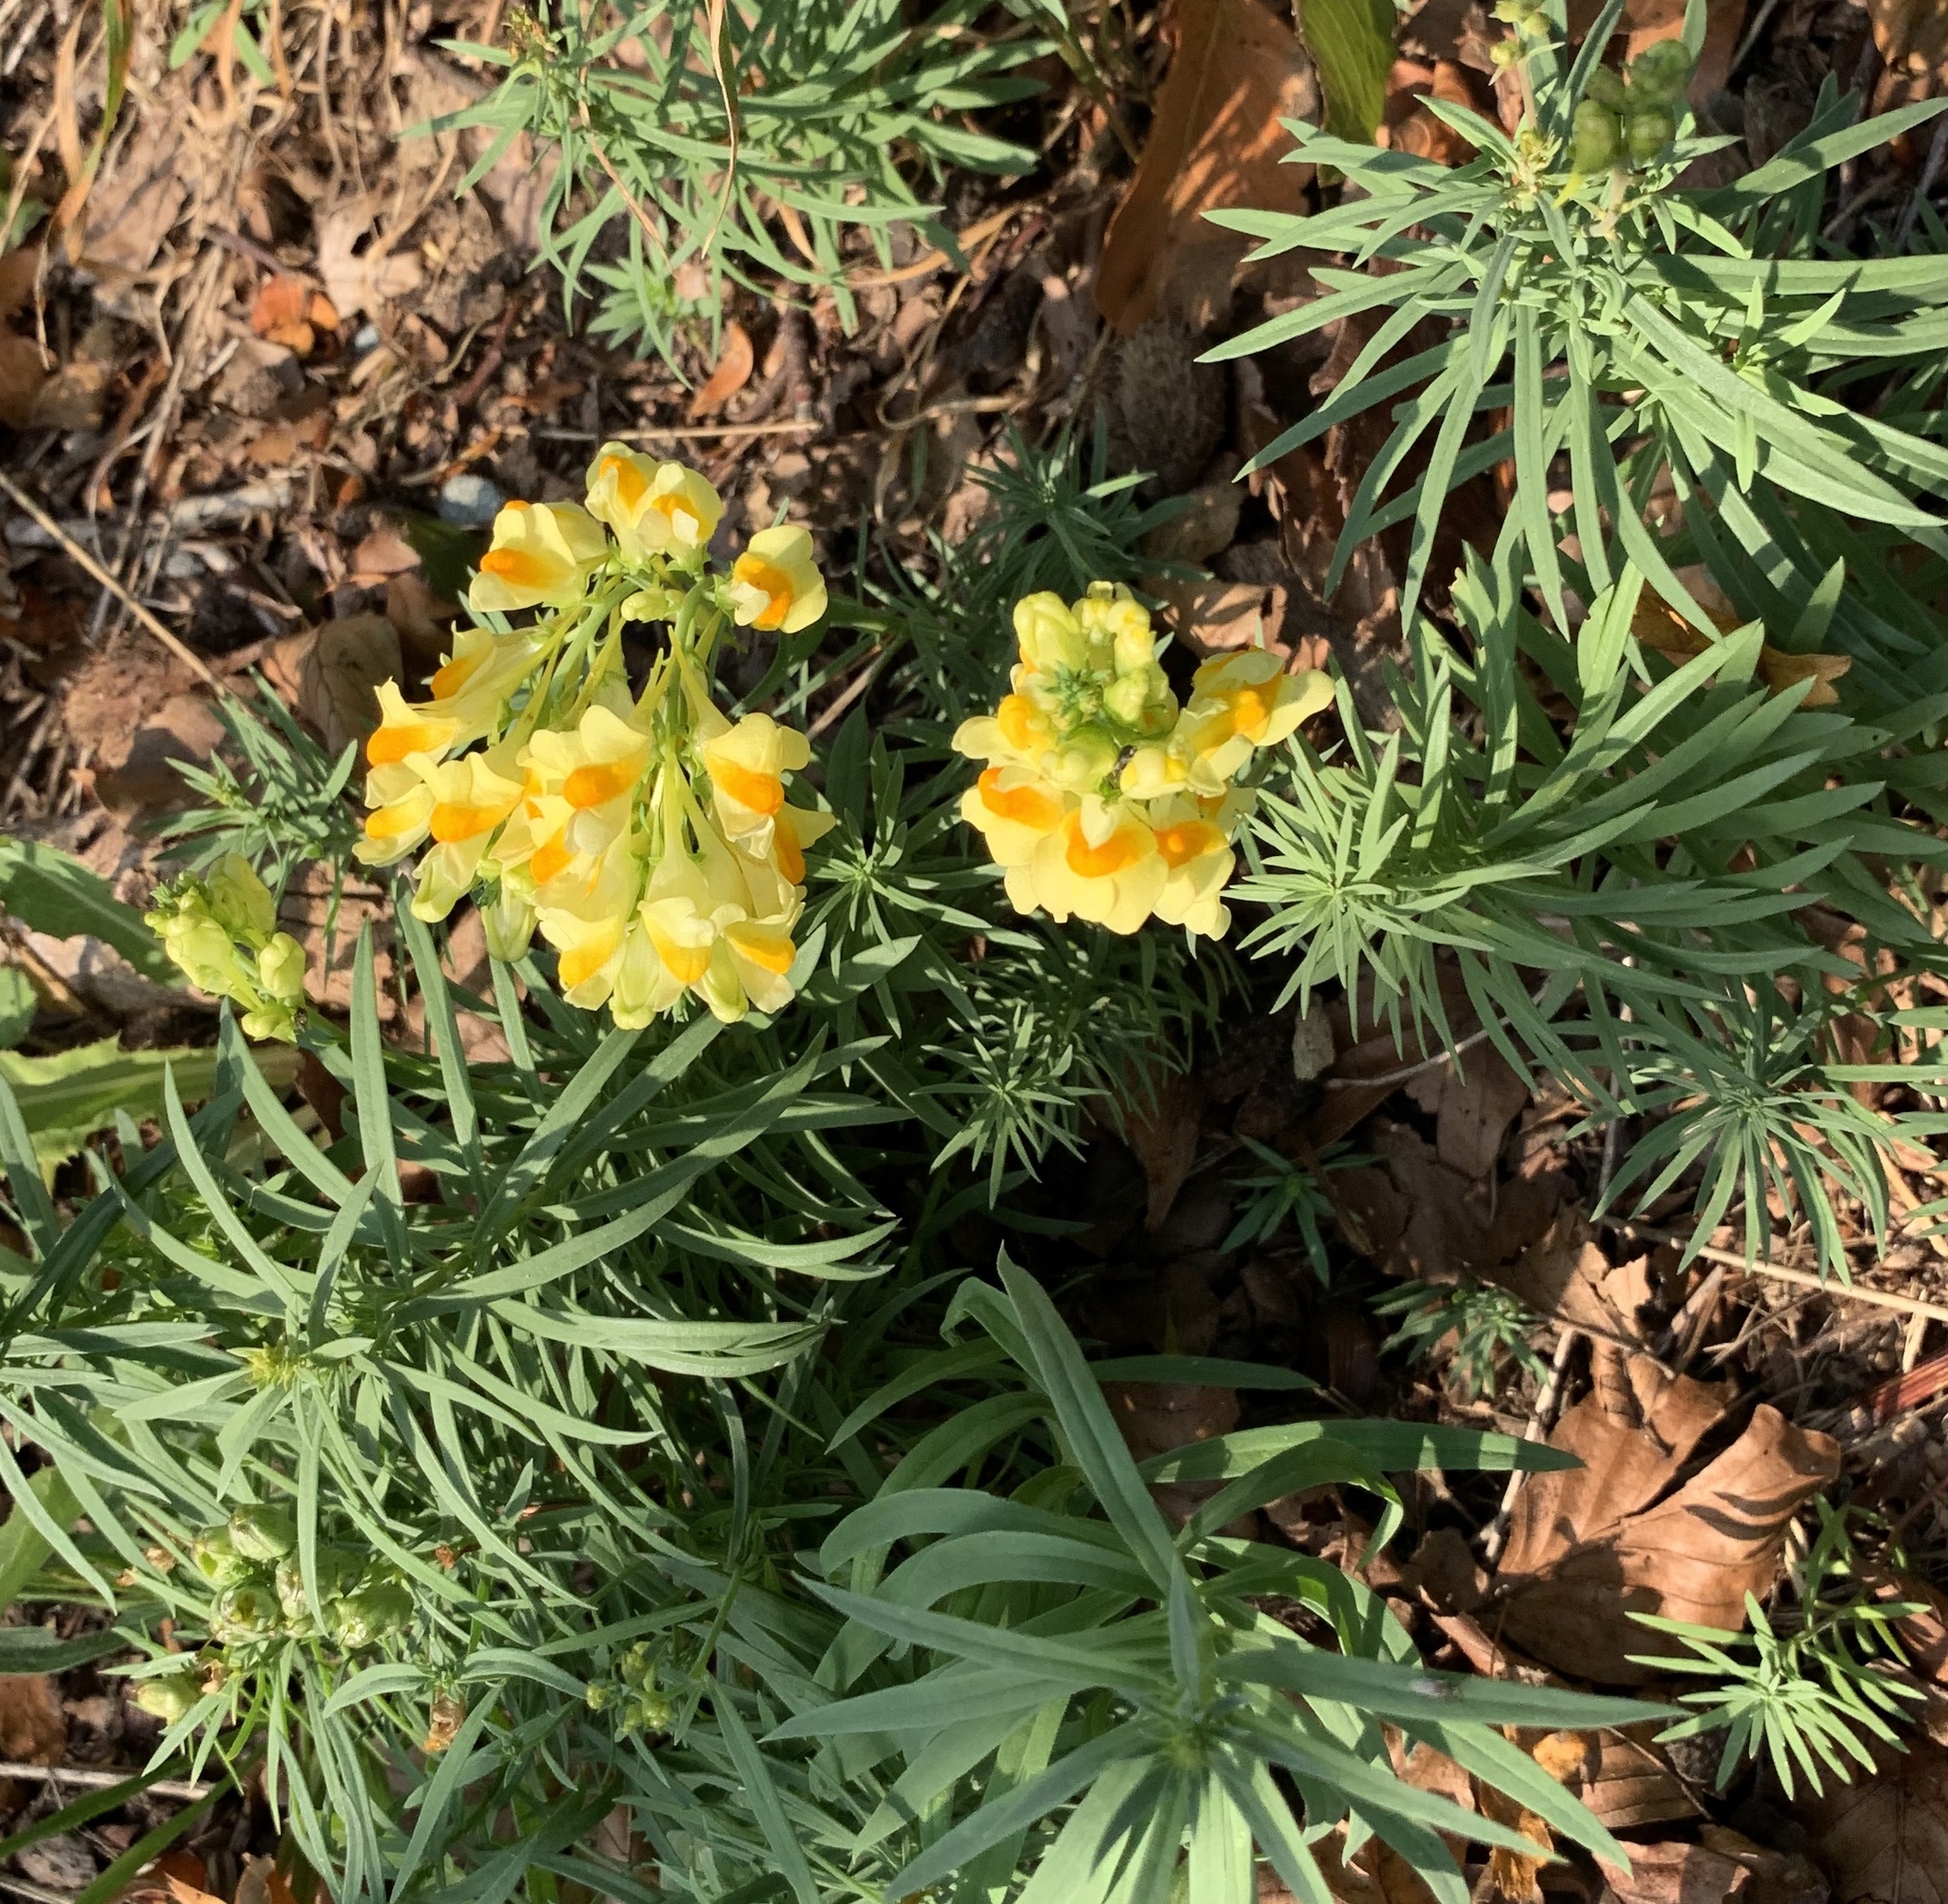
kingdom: Plantae
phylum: Tracheophyta
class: Magnoliopsida
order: Lamiales
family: Plantaginaceae
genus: Linaria
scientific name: Linaria vulgaris
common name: Butter and eggs
